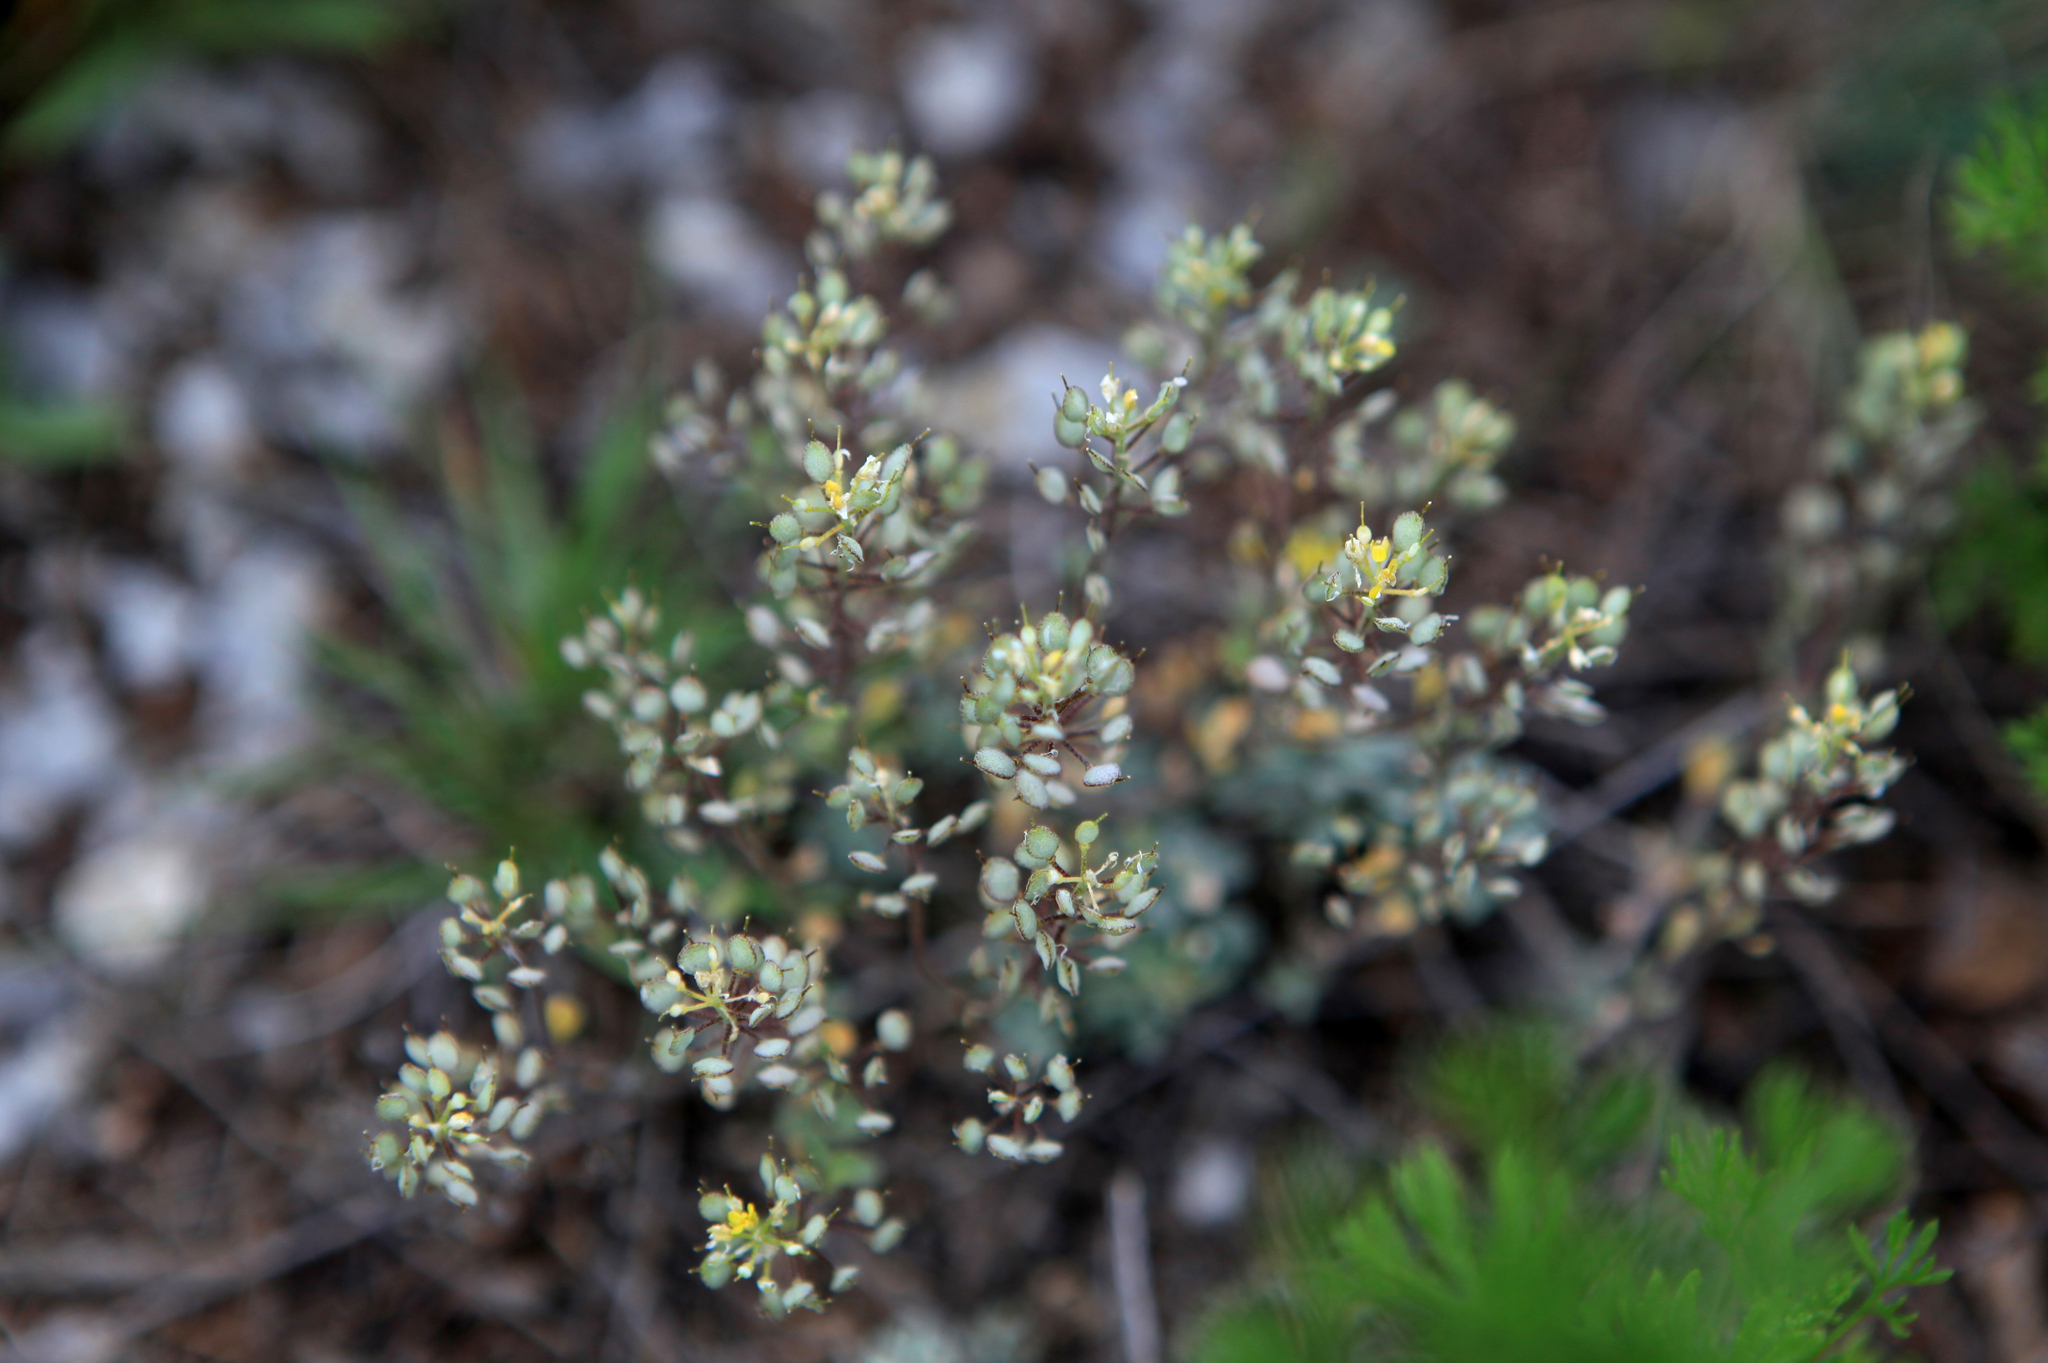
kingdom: Plantae
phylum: Tracheophyta
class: Magnoliopsida
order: Brassicales
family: Brassicaceae
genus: Odontarrhena
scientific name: Odontarrhena obovata
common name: American alyssum
